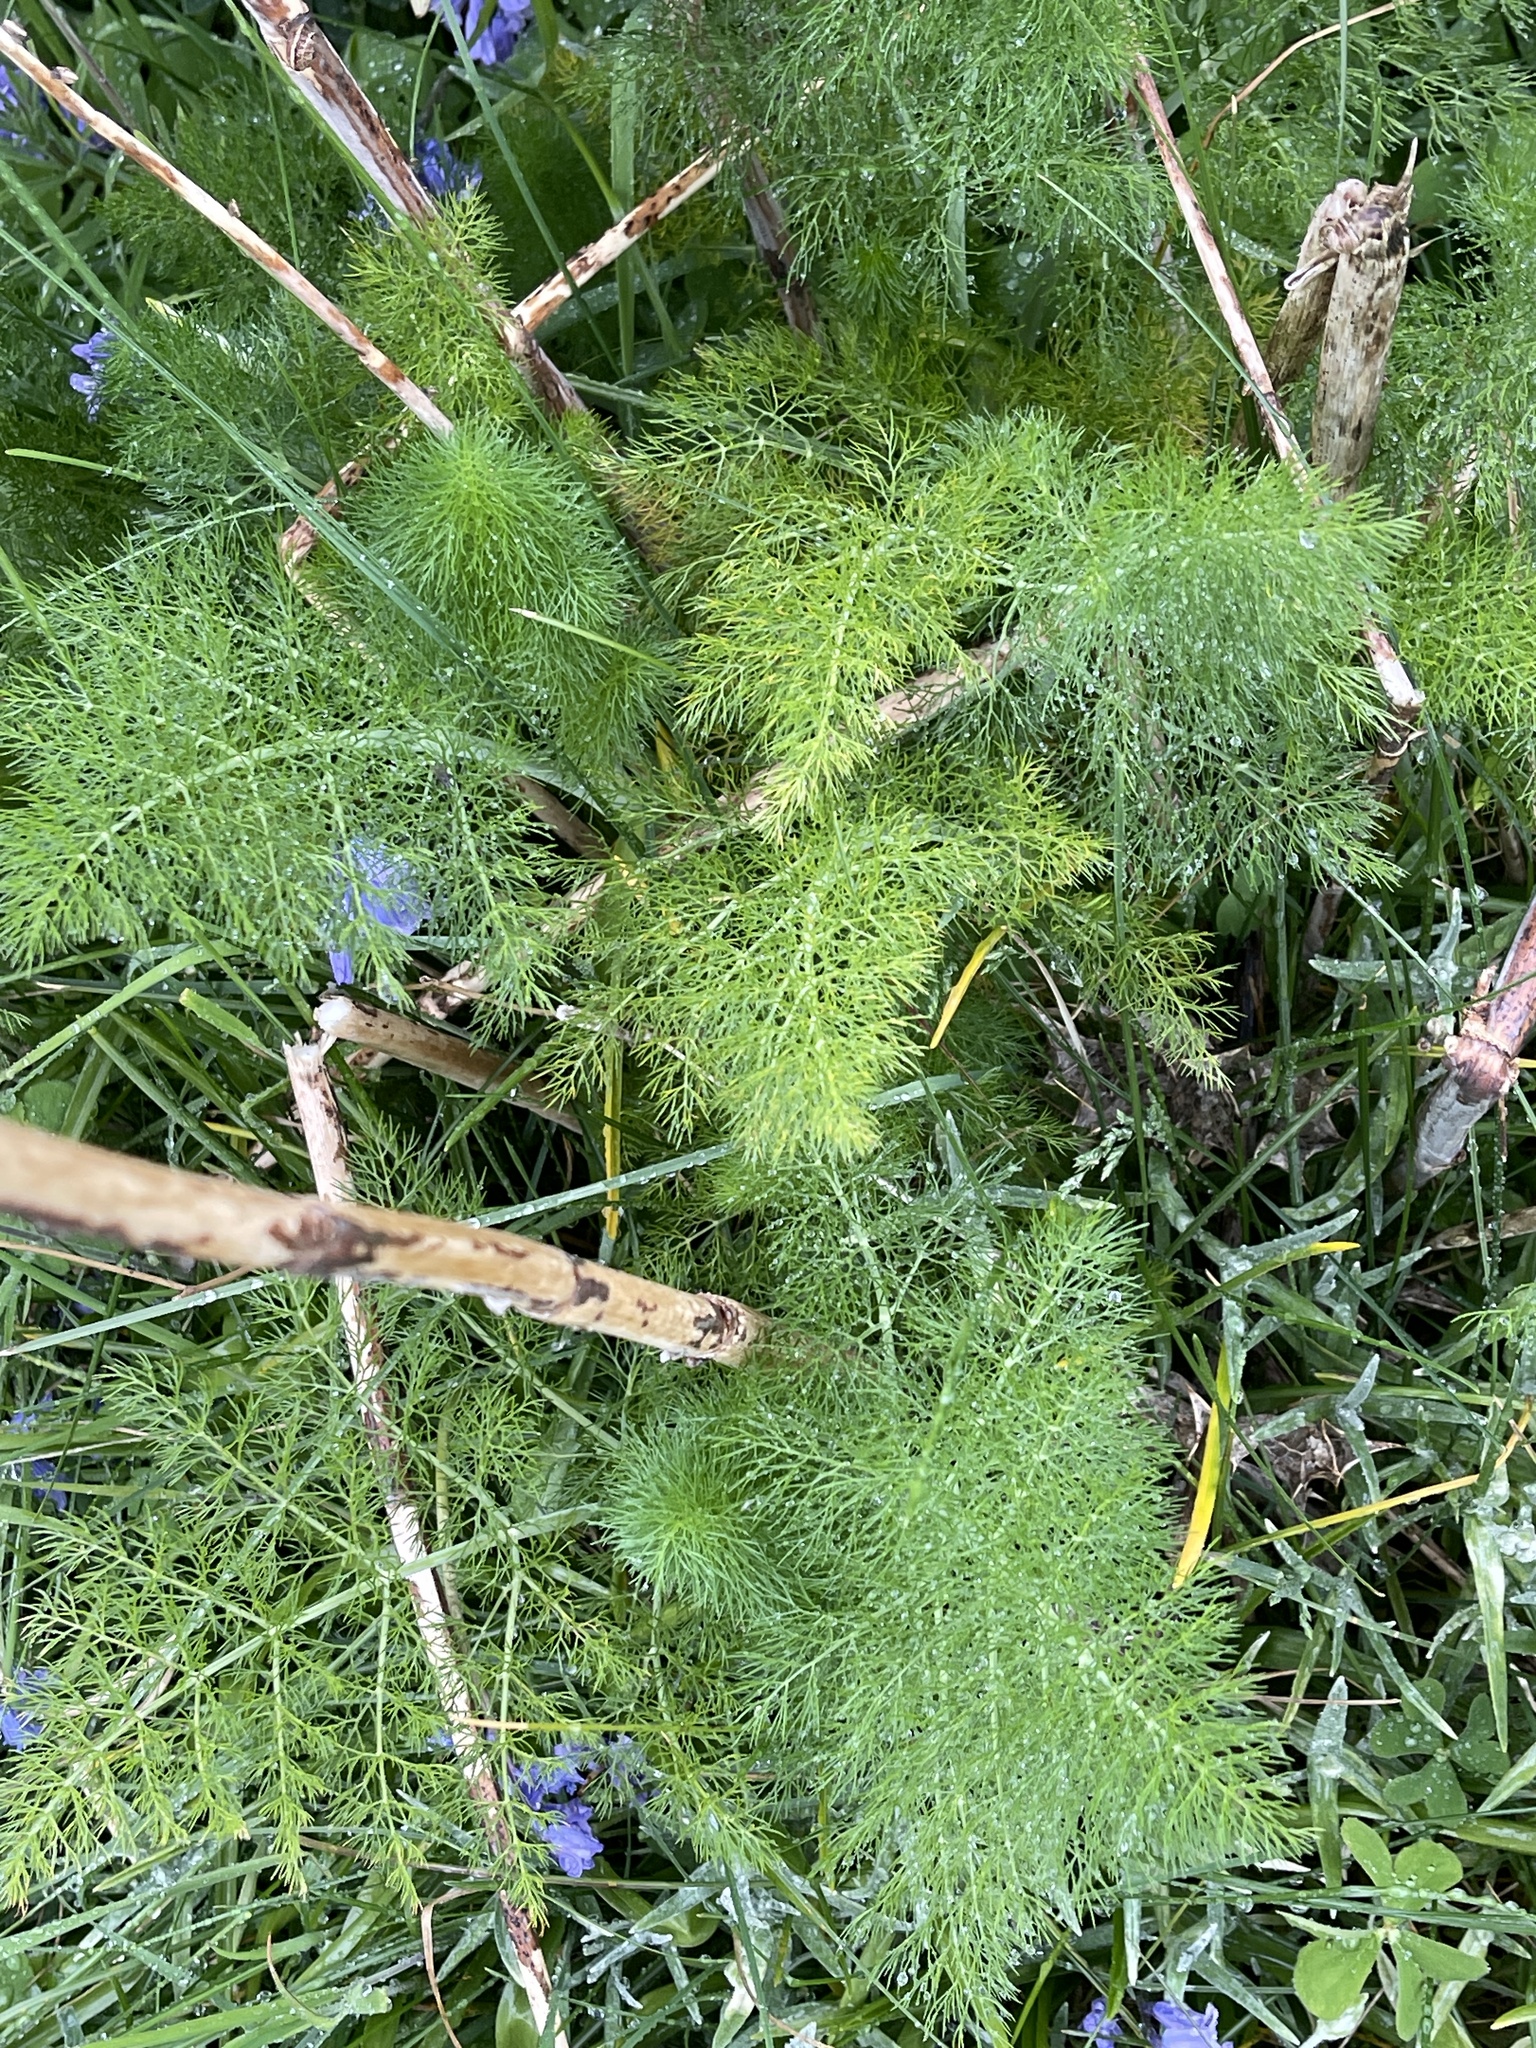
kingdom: Plantae
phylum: Tracheophyta
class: Magnoliopsida
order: Apiales
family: Apiaceae
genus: Foeniculum
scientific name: Foeniculum vulgare
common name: Fennel
